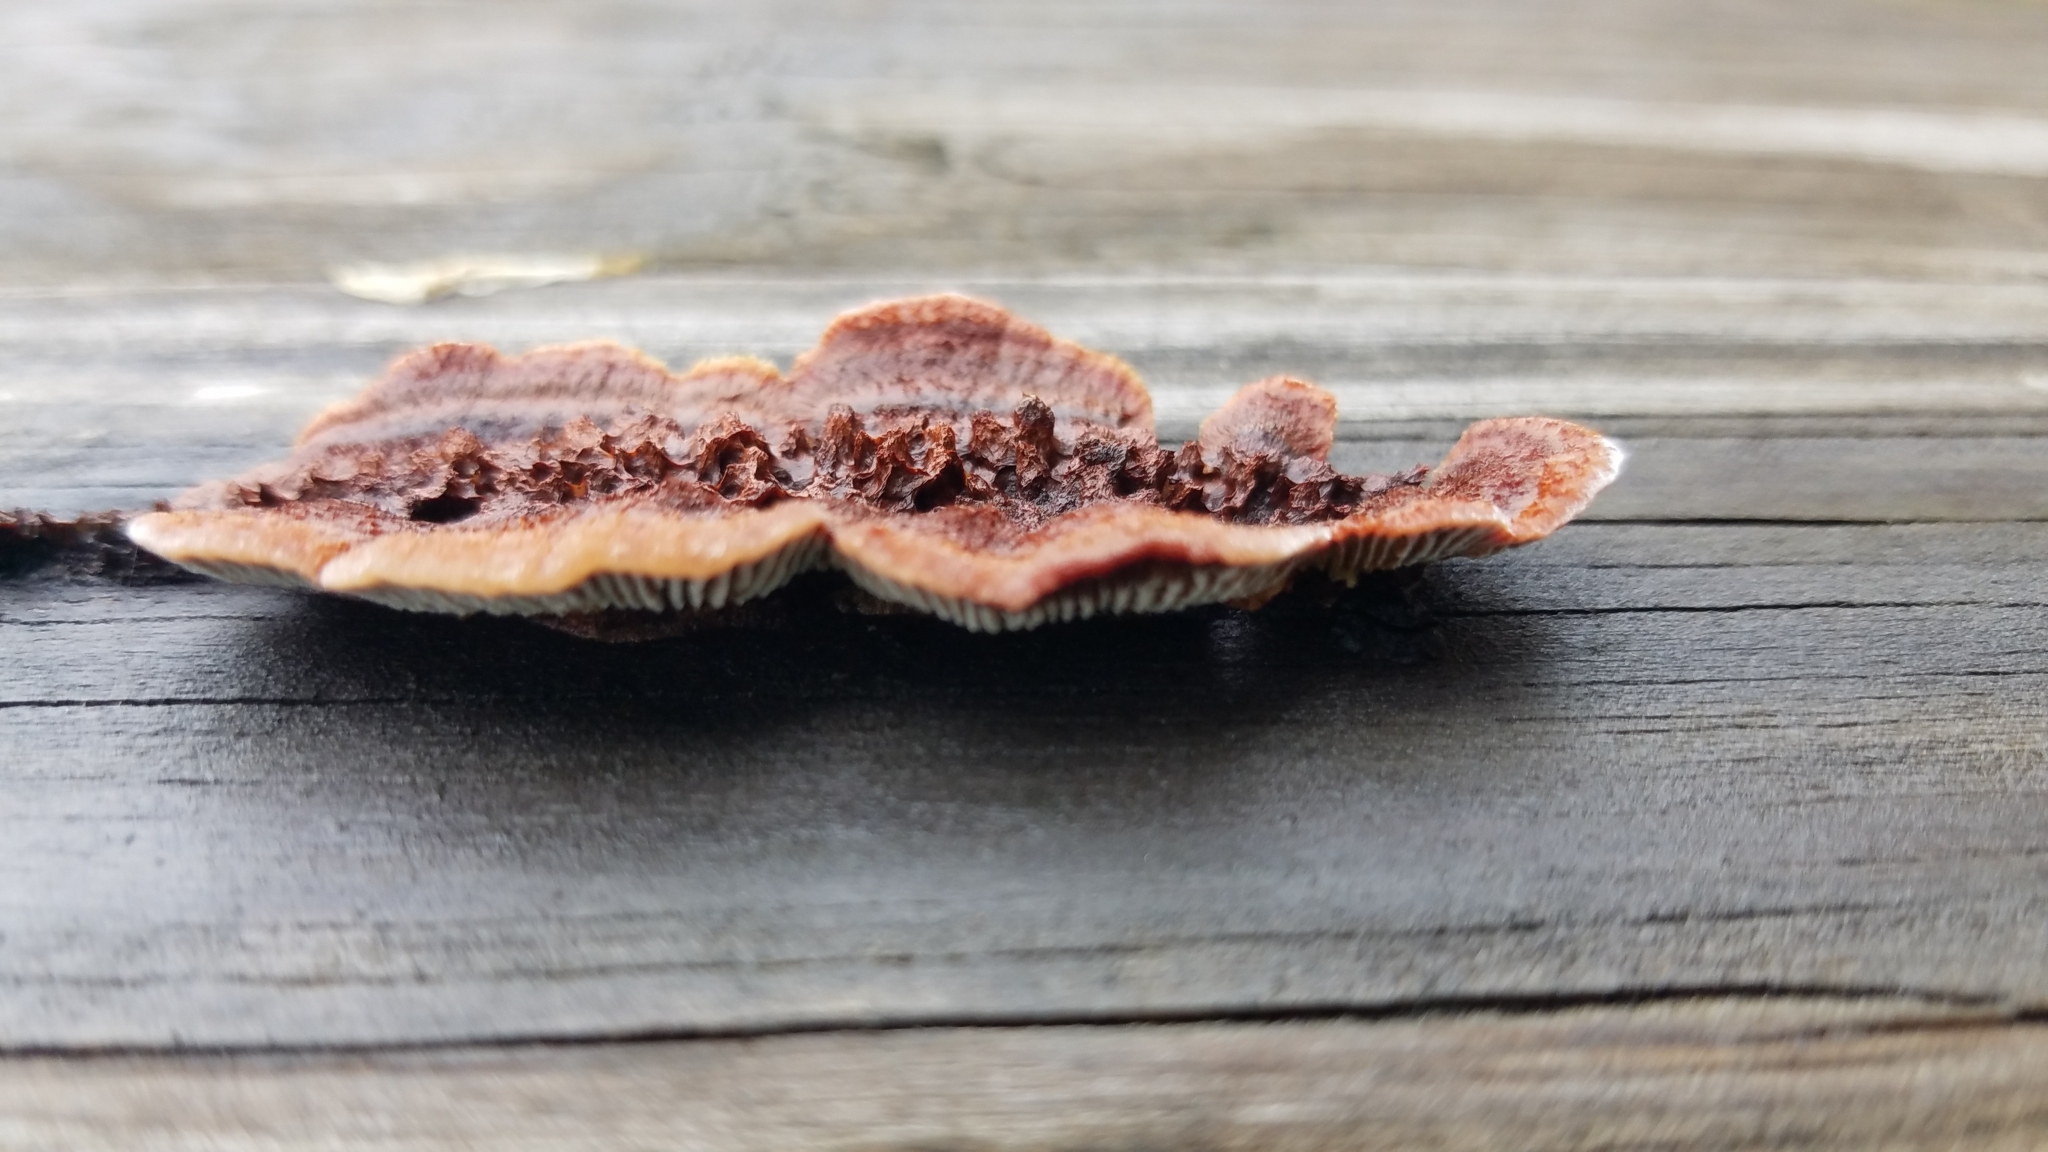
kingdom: Fungi
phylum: Basidiomycota
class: Agaricomycetes
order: Gloeophyllales
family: Gloeophyllaceae
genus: Gloeophyllum
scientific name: Gloeophyllum sepiarium
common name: Conifer mazegill
